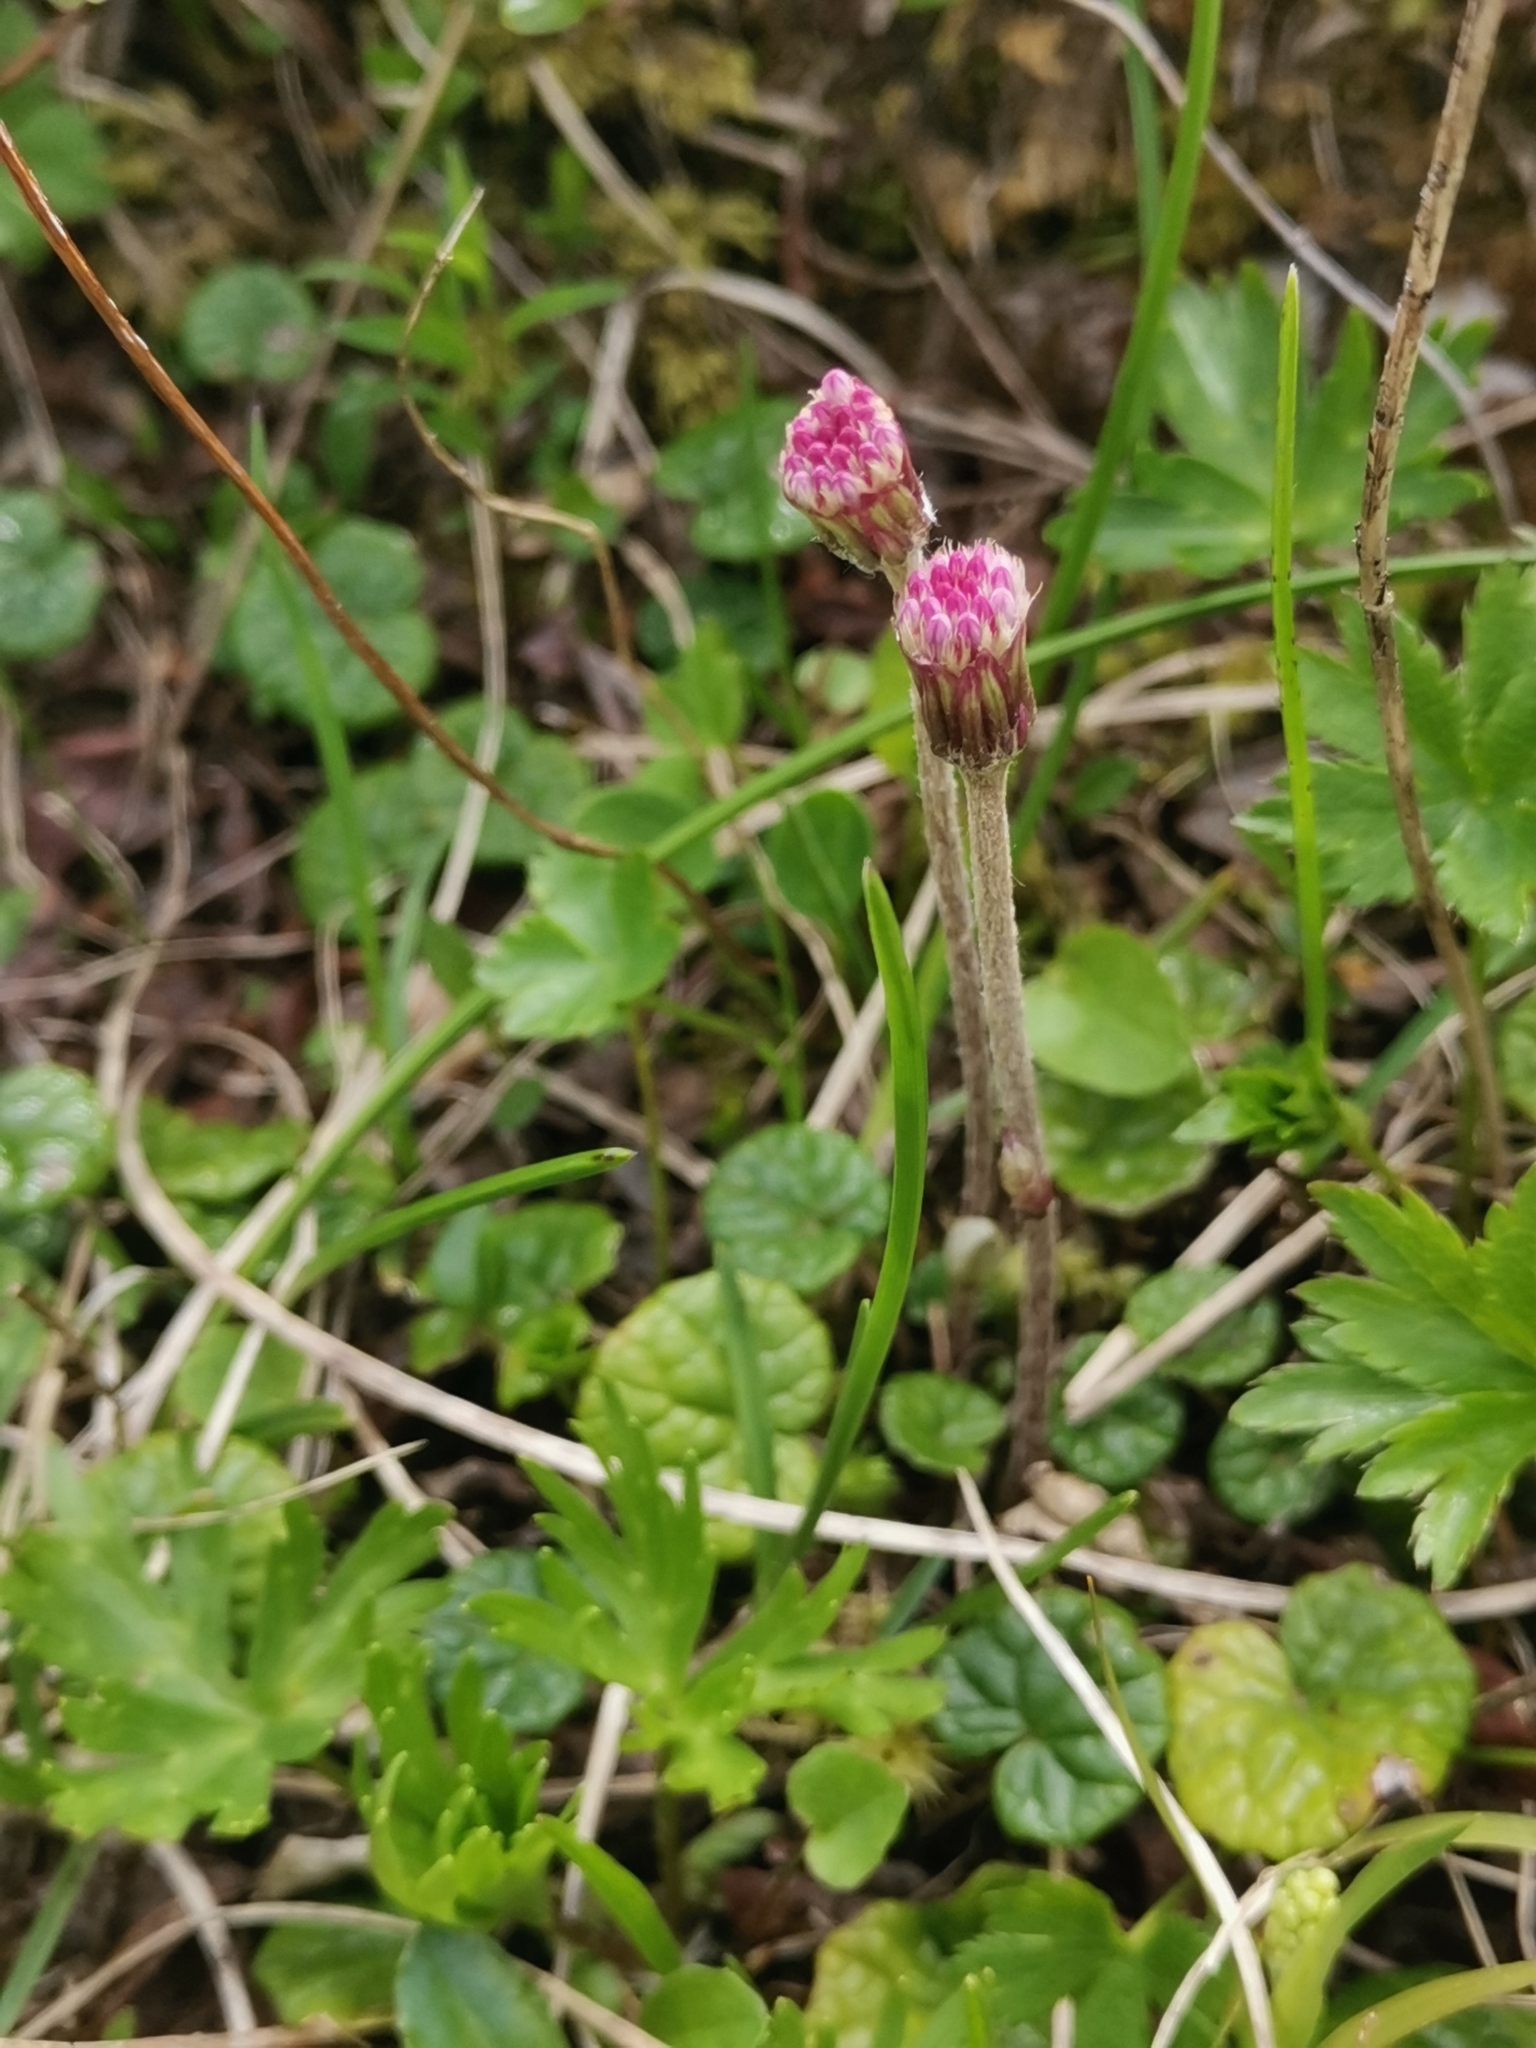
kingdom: Plantae
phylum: Tracheophyta
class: Magnoliopsida
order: Asterales
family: Asteraceae
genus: Homogyne
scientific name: Homogyne discolor
